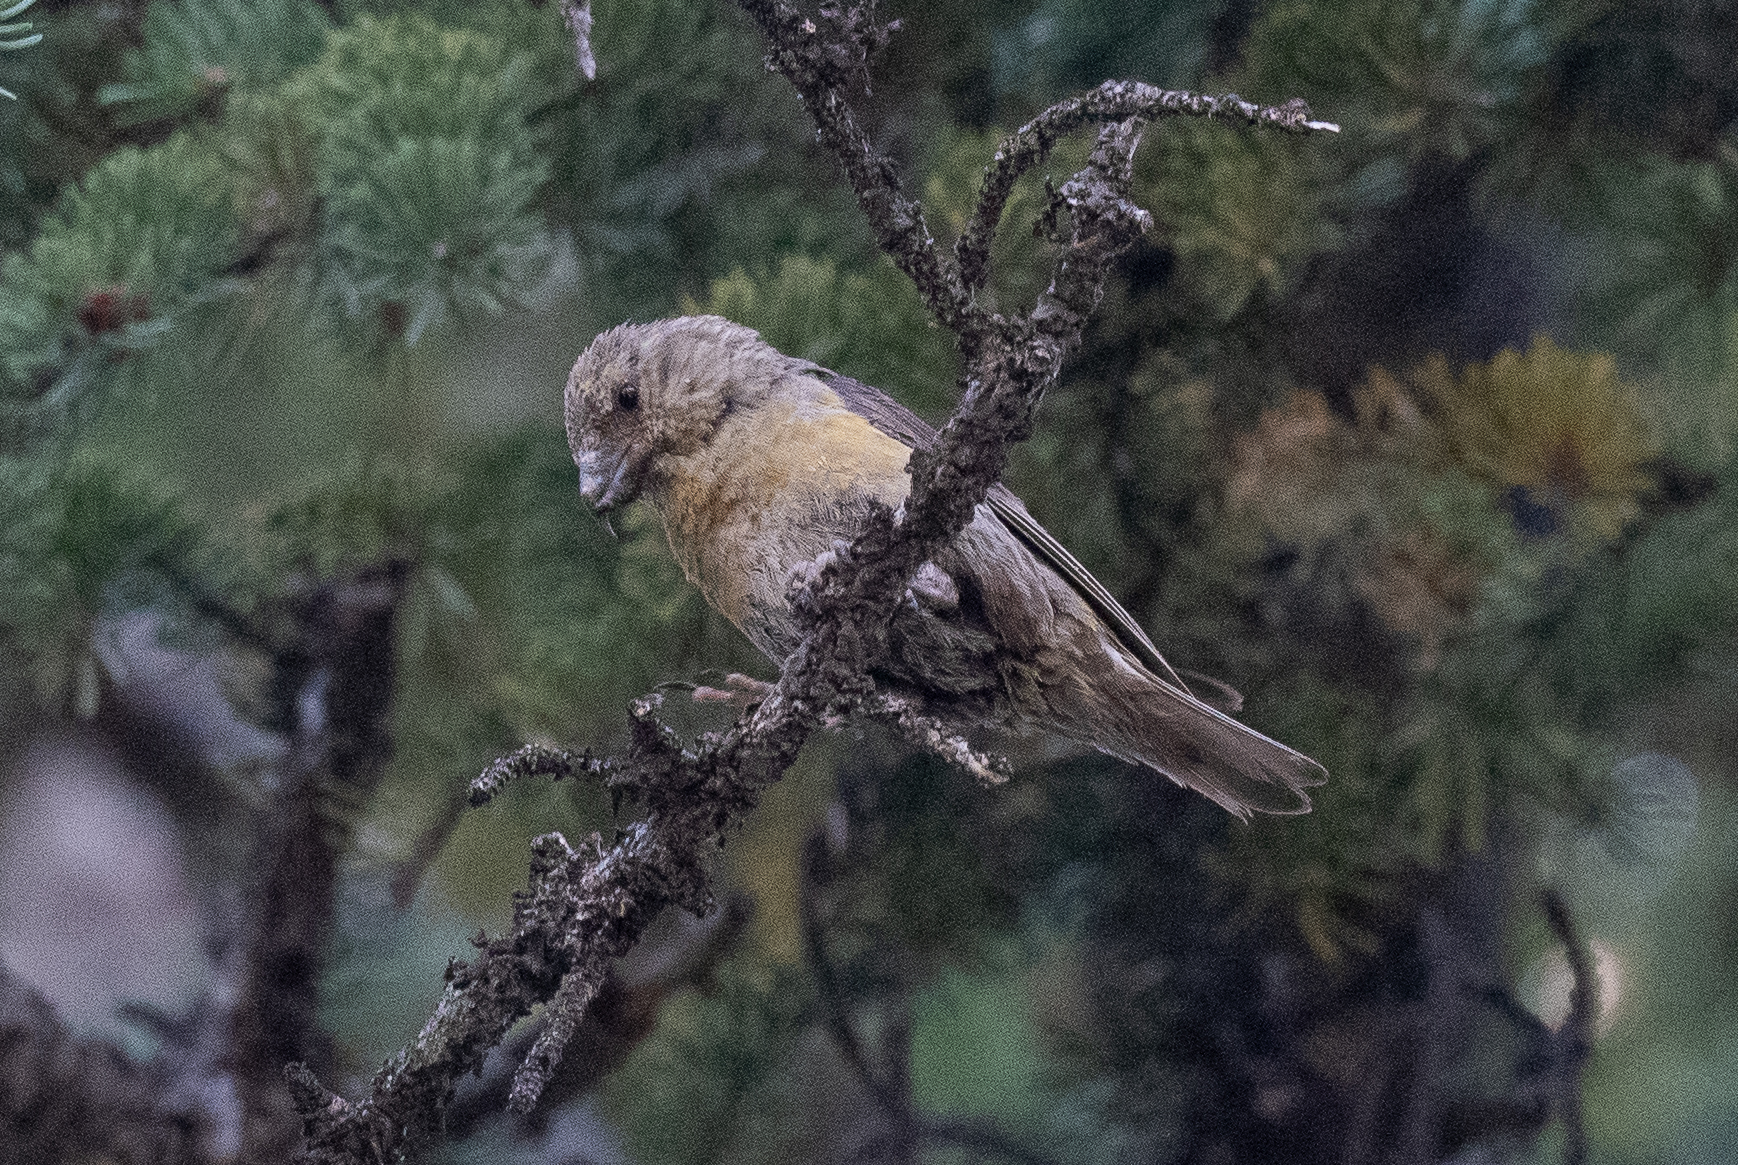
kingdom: Animalia
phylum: Chordata
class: Aves
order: Passeriformes
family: Fringillidae
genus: Loxia
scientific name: Loxia curvirostra
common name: Red crossbill
